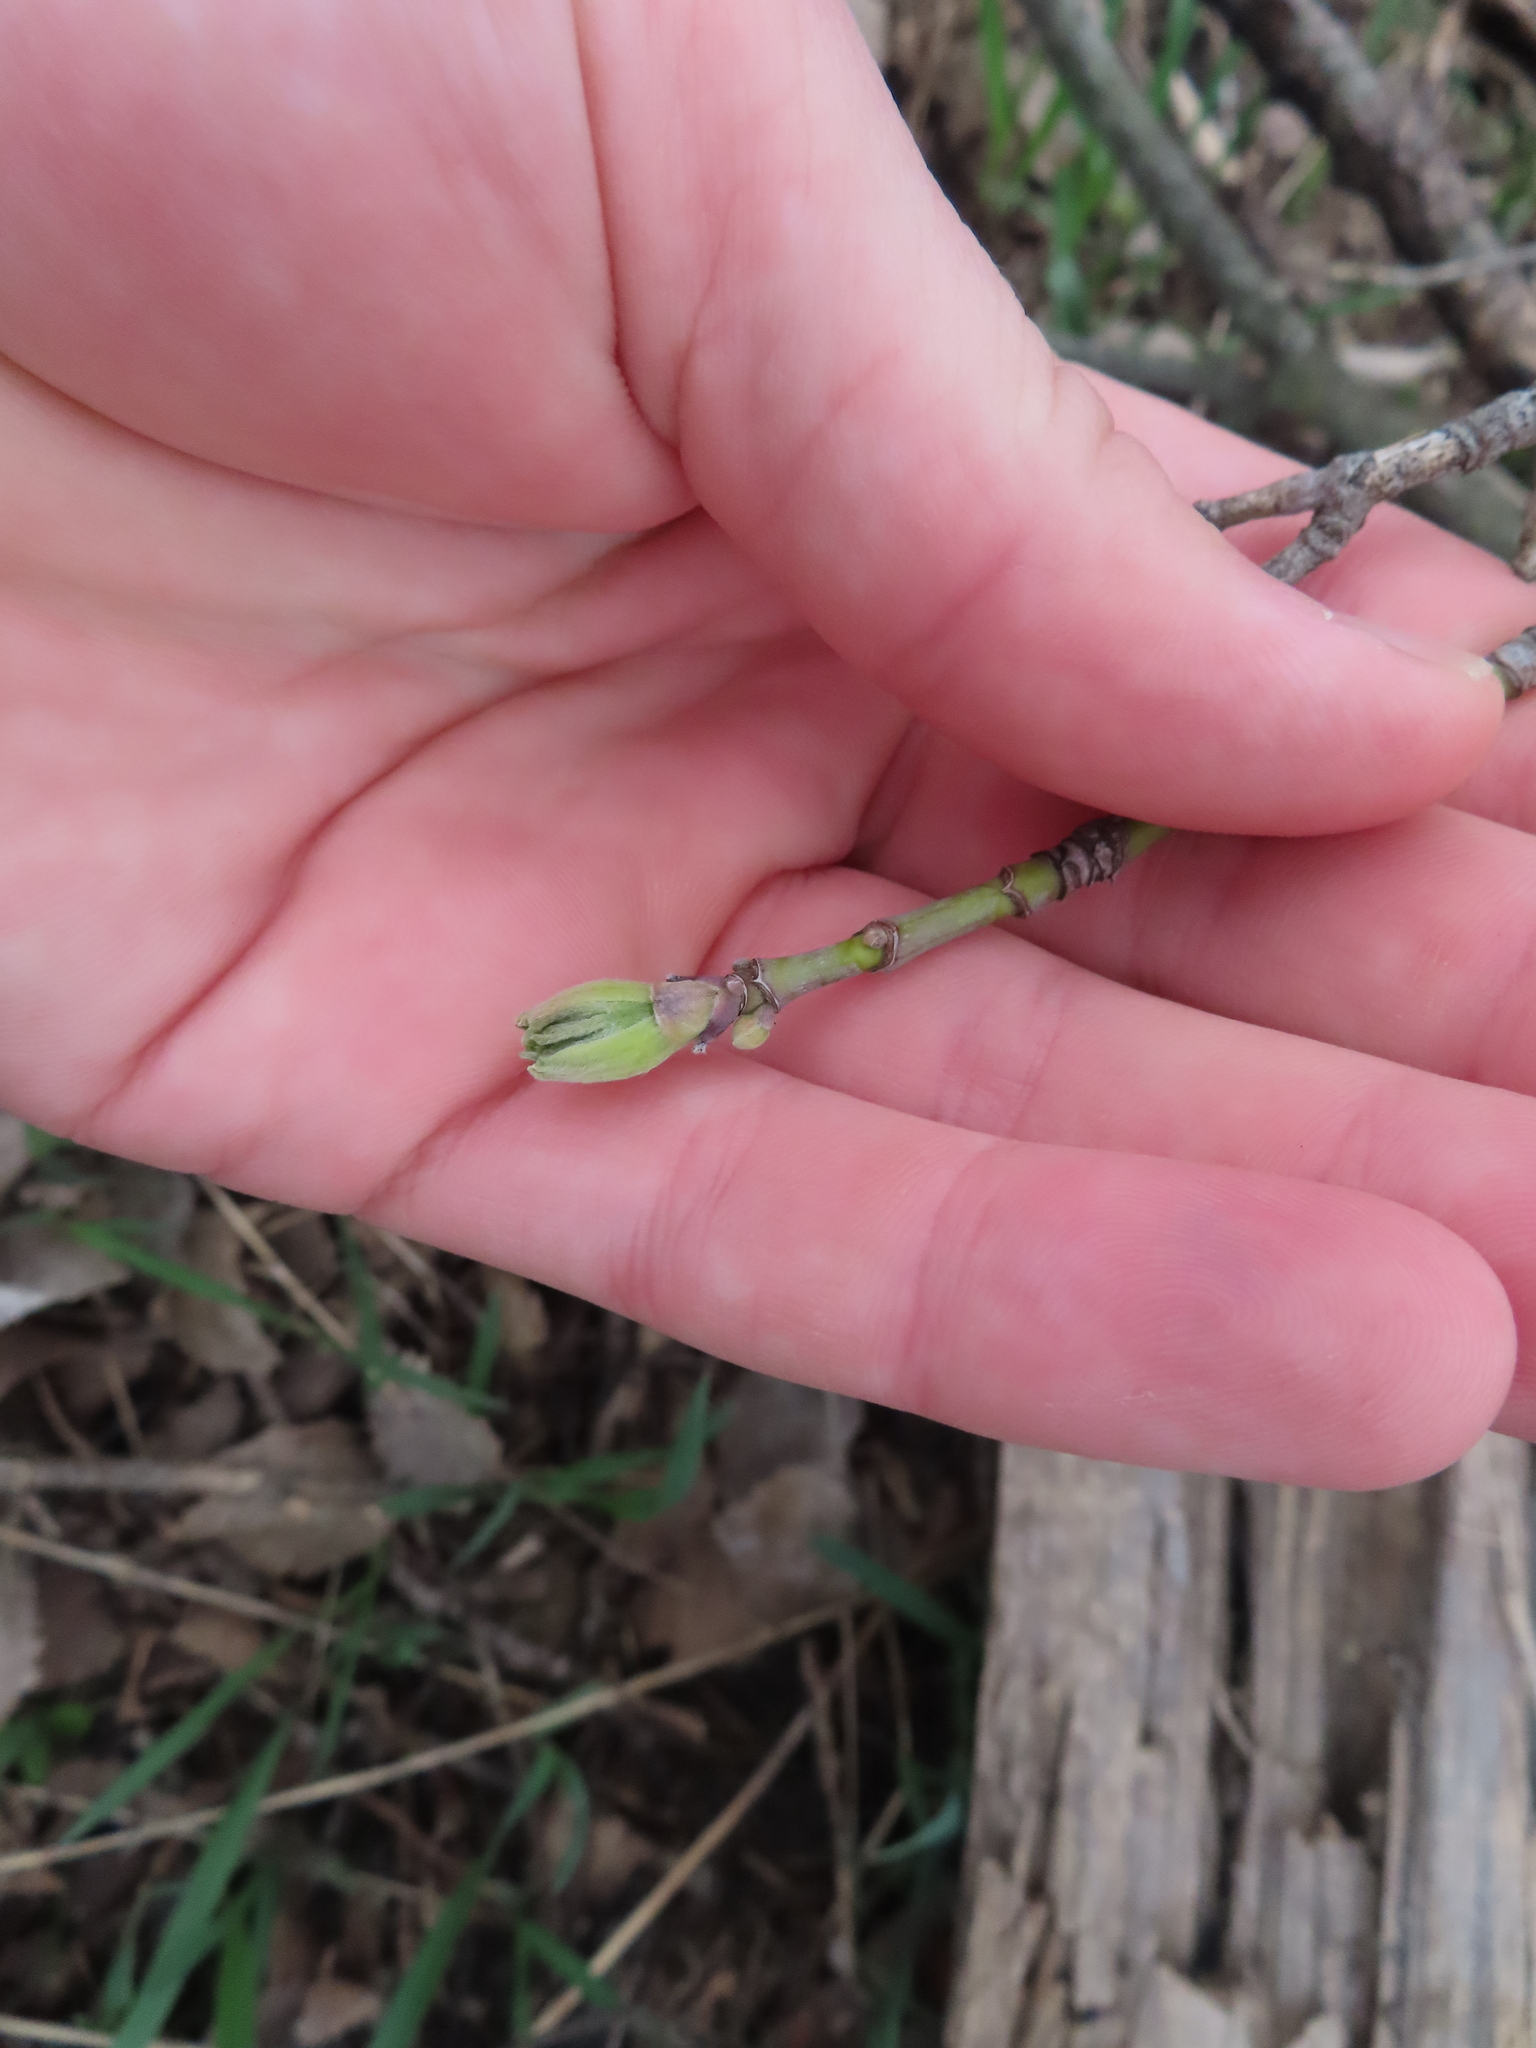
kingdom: Plantae
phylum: Tracheophyta
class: Magnoliopsida
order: Sapindales
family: Sapindaceae
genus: Acer
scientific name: Acer negundo
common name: Ashleaf maple
